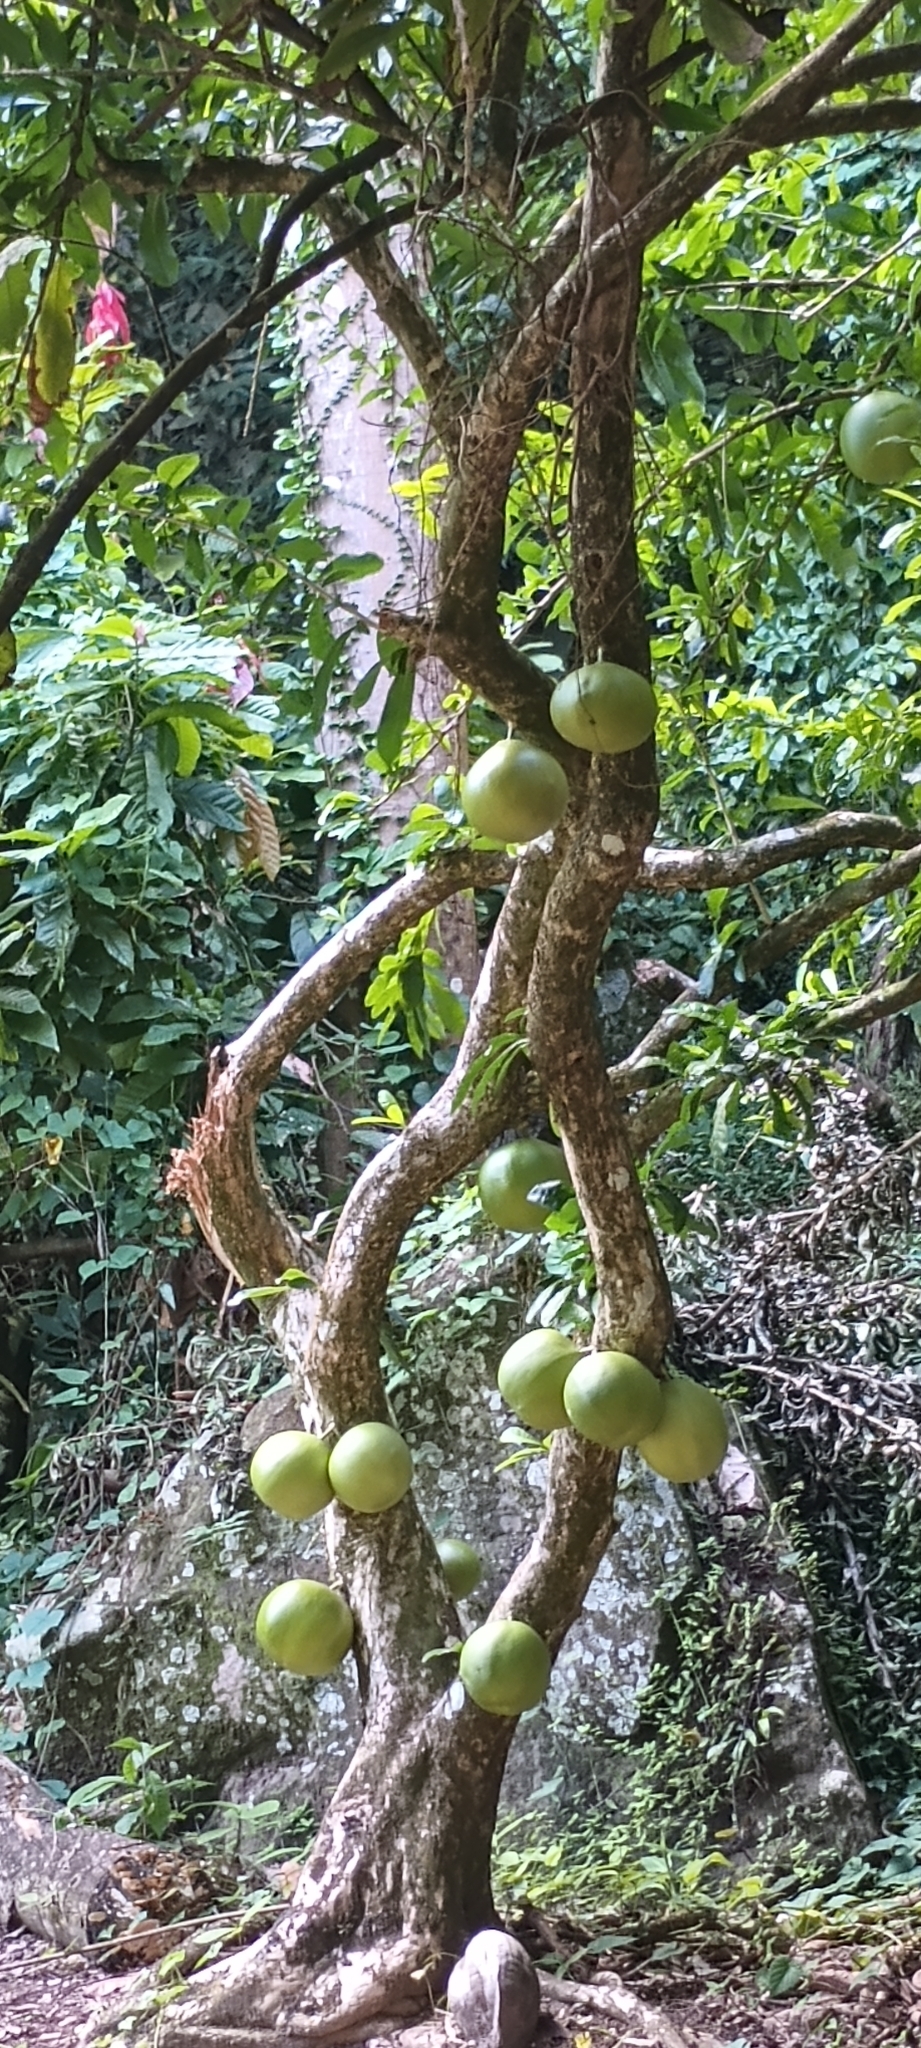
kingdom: Plantae
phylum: Tracheophyta
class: Magnoliopsida
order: Lamiales
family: Bignoniaceae
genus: Crescentia
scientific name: Crescentia cujete
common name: Calabash
